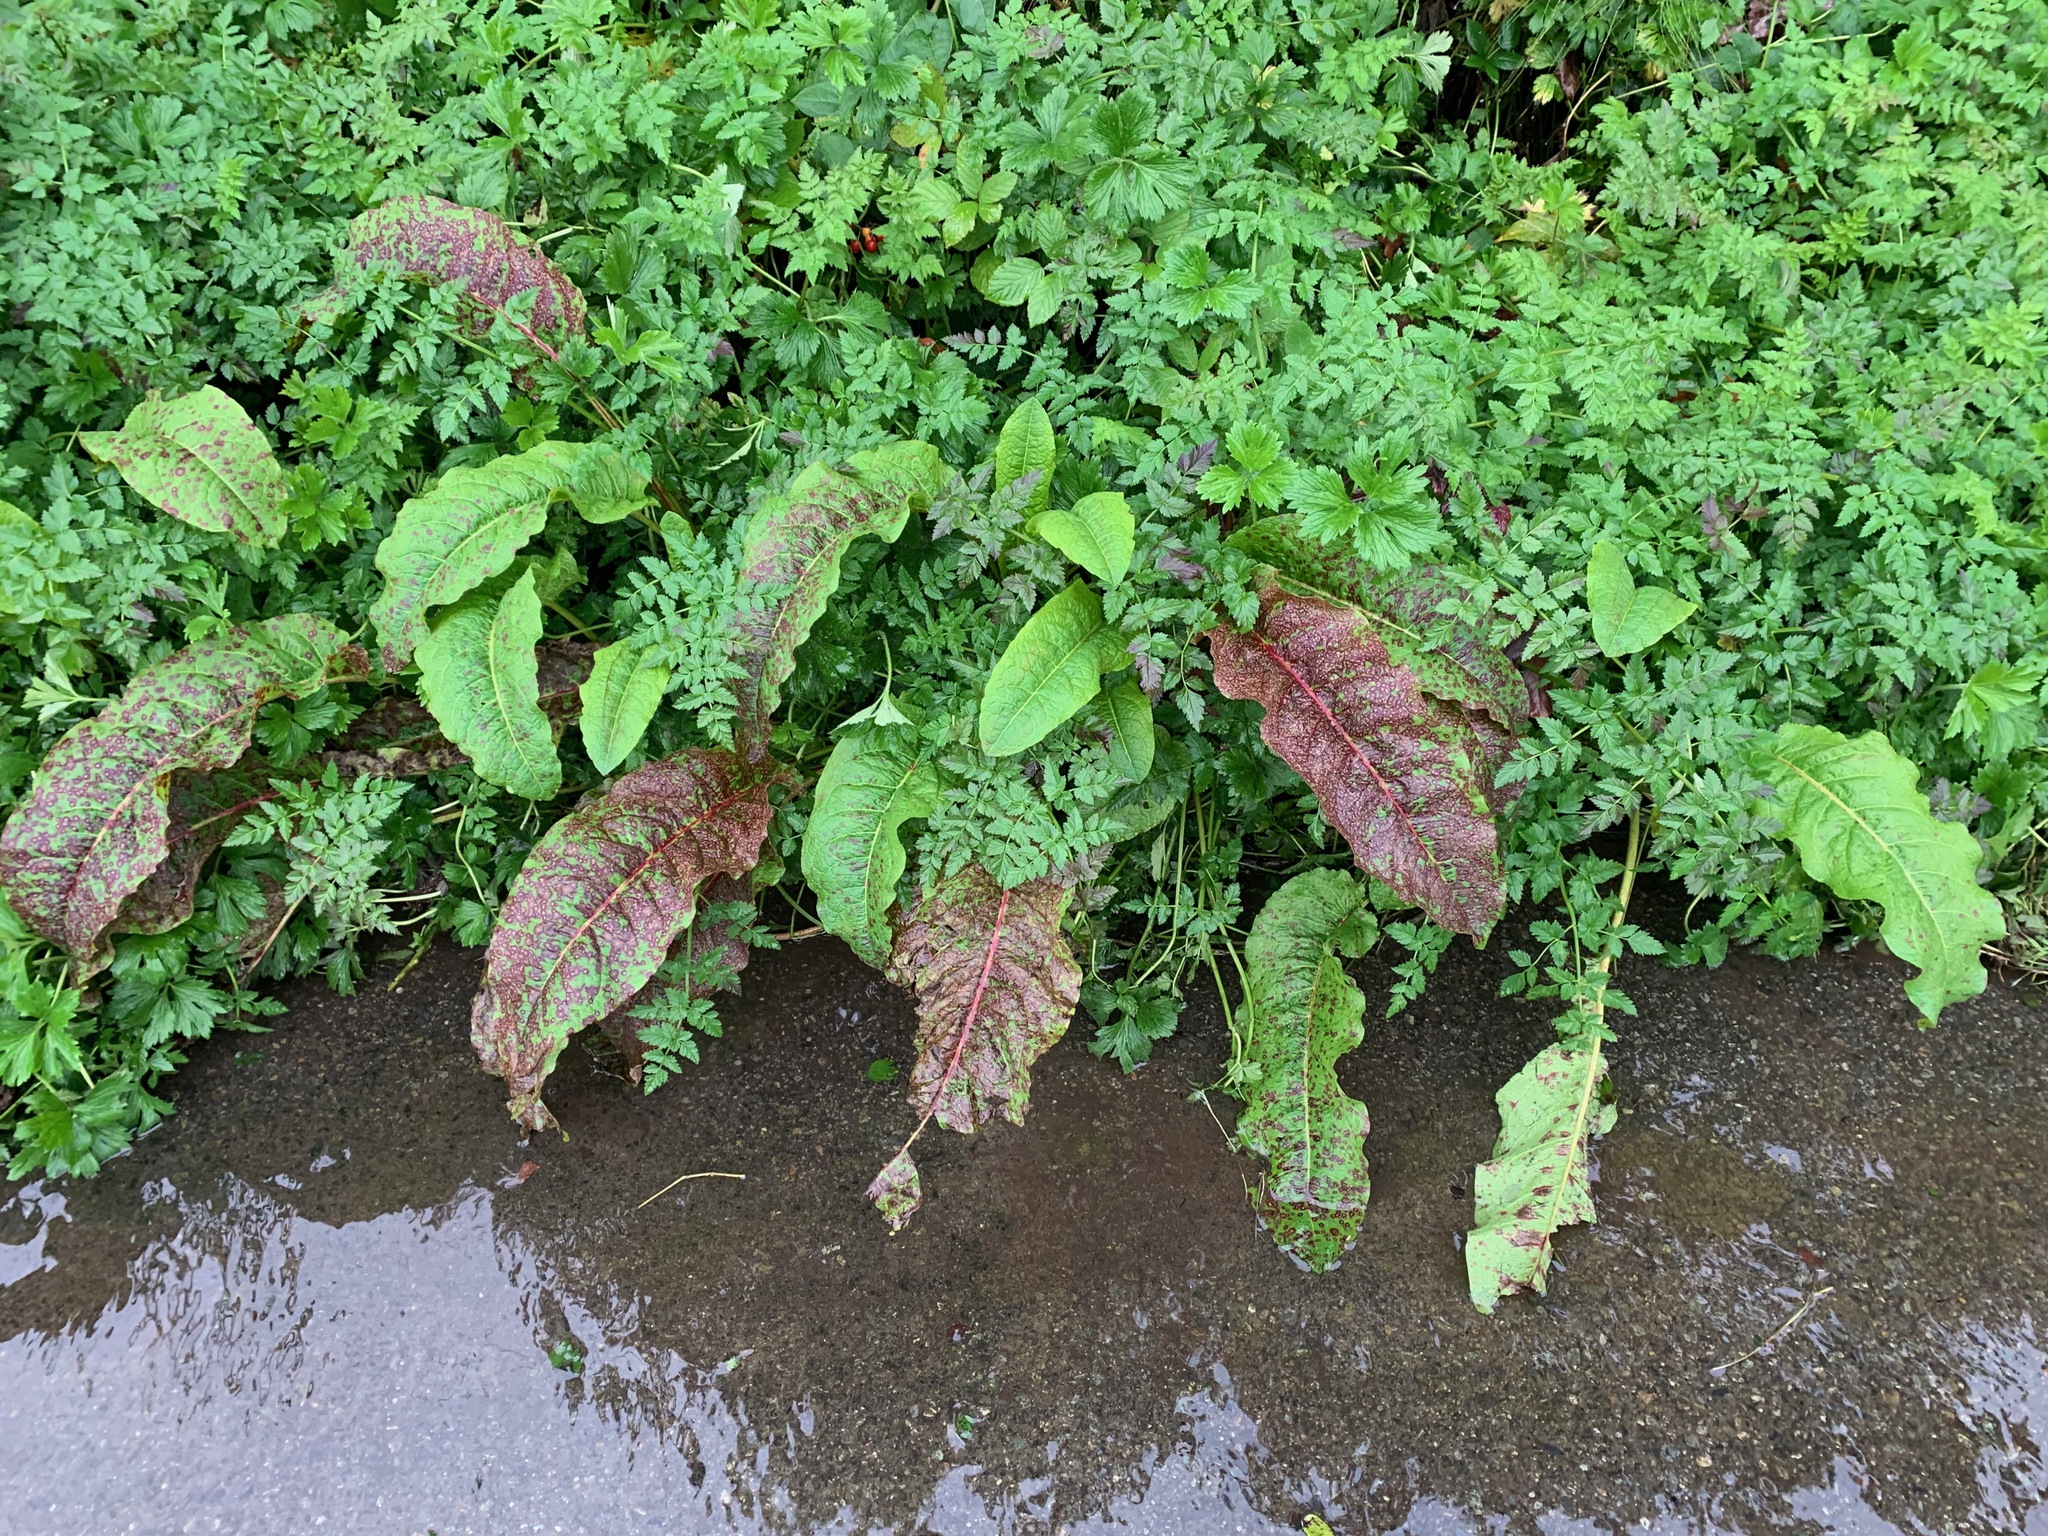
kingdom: Fungi
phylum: Ascomycota
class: Dothideomycetes
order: Mycosphaerellales
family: Mycosphaerellaceae
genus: Ramularia
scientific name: Ramularia rubella
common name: Red dock spot
